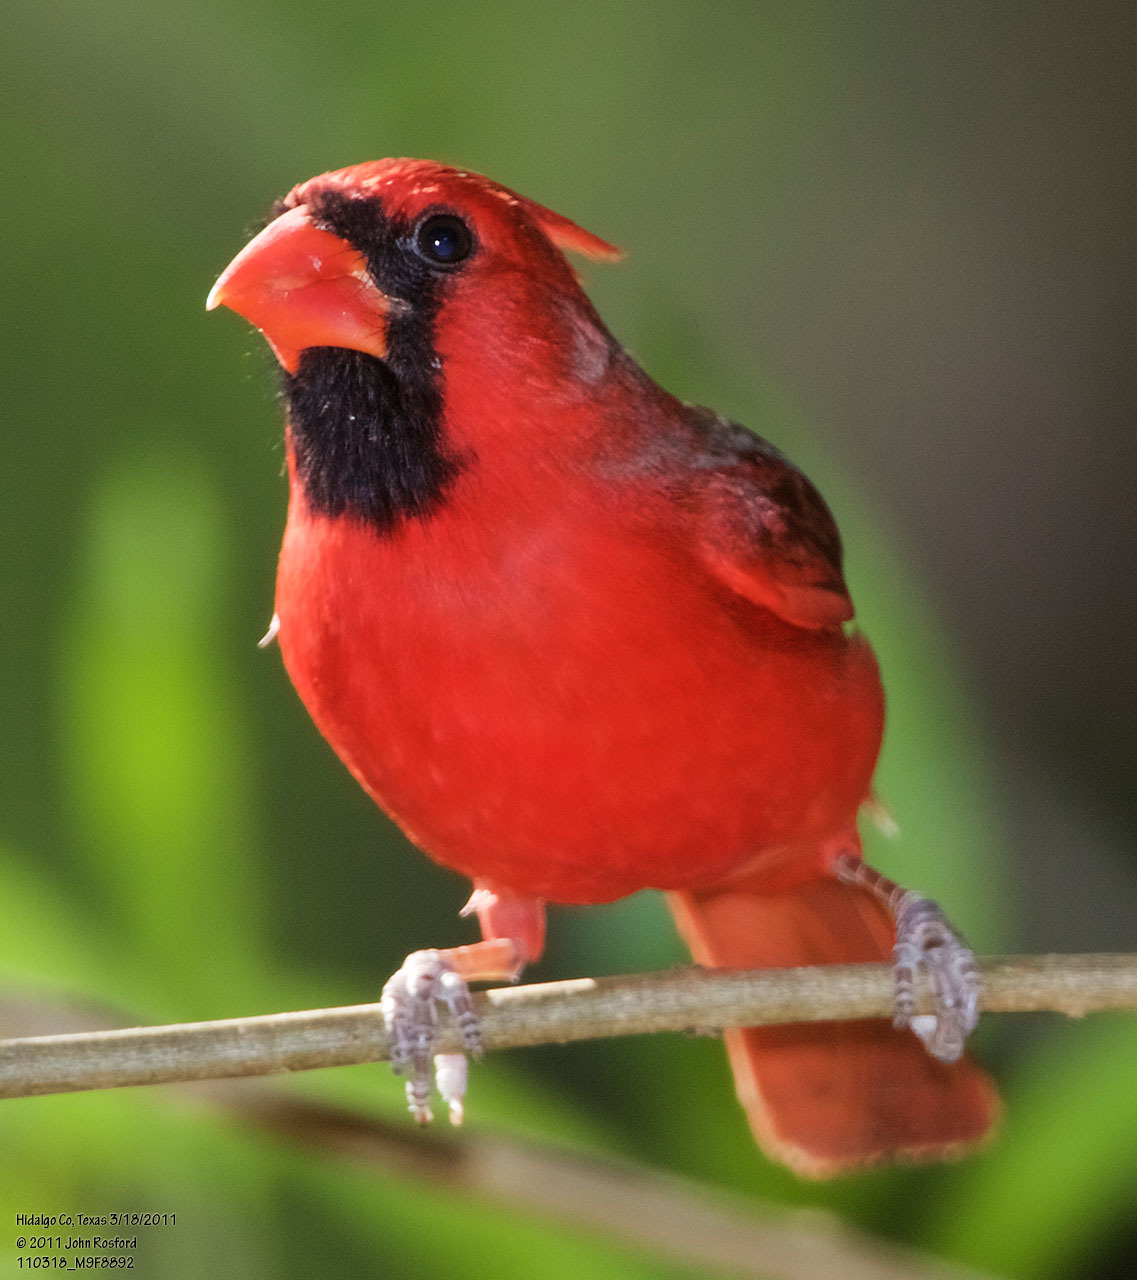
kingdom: Animalia
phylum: Chordata
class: Aves
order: Passeriformes
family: Cardinalidae
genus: Cardinalis
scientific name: Cardinalis cardinalis
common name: Northern cardinal
